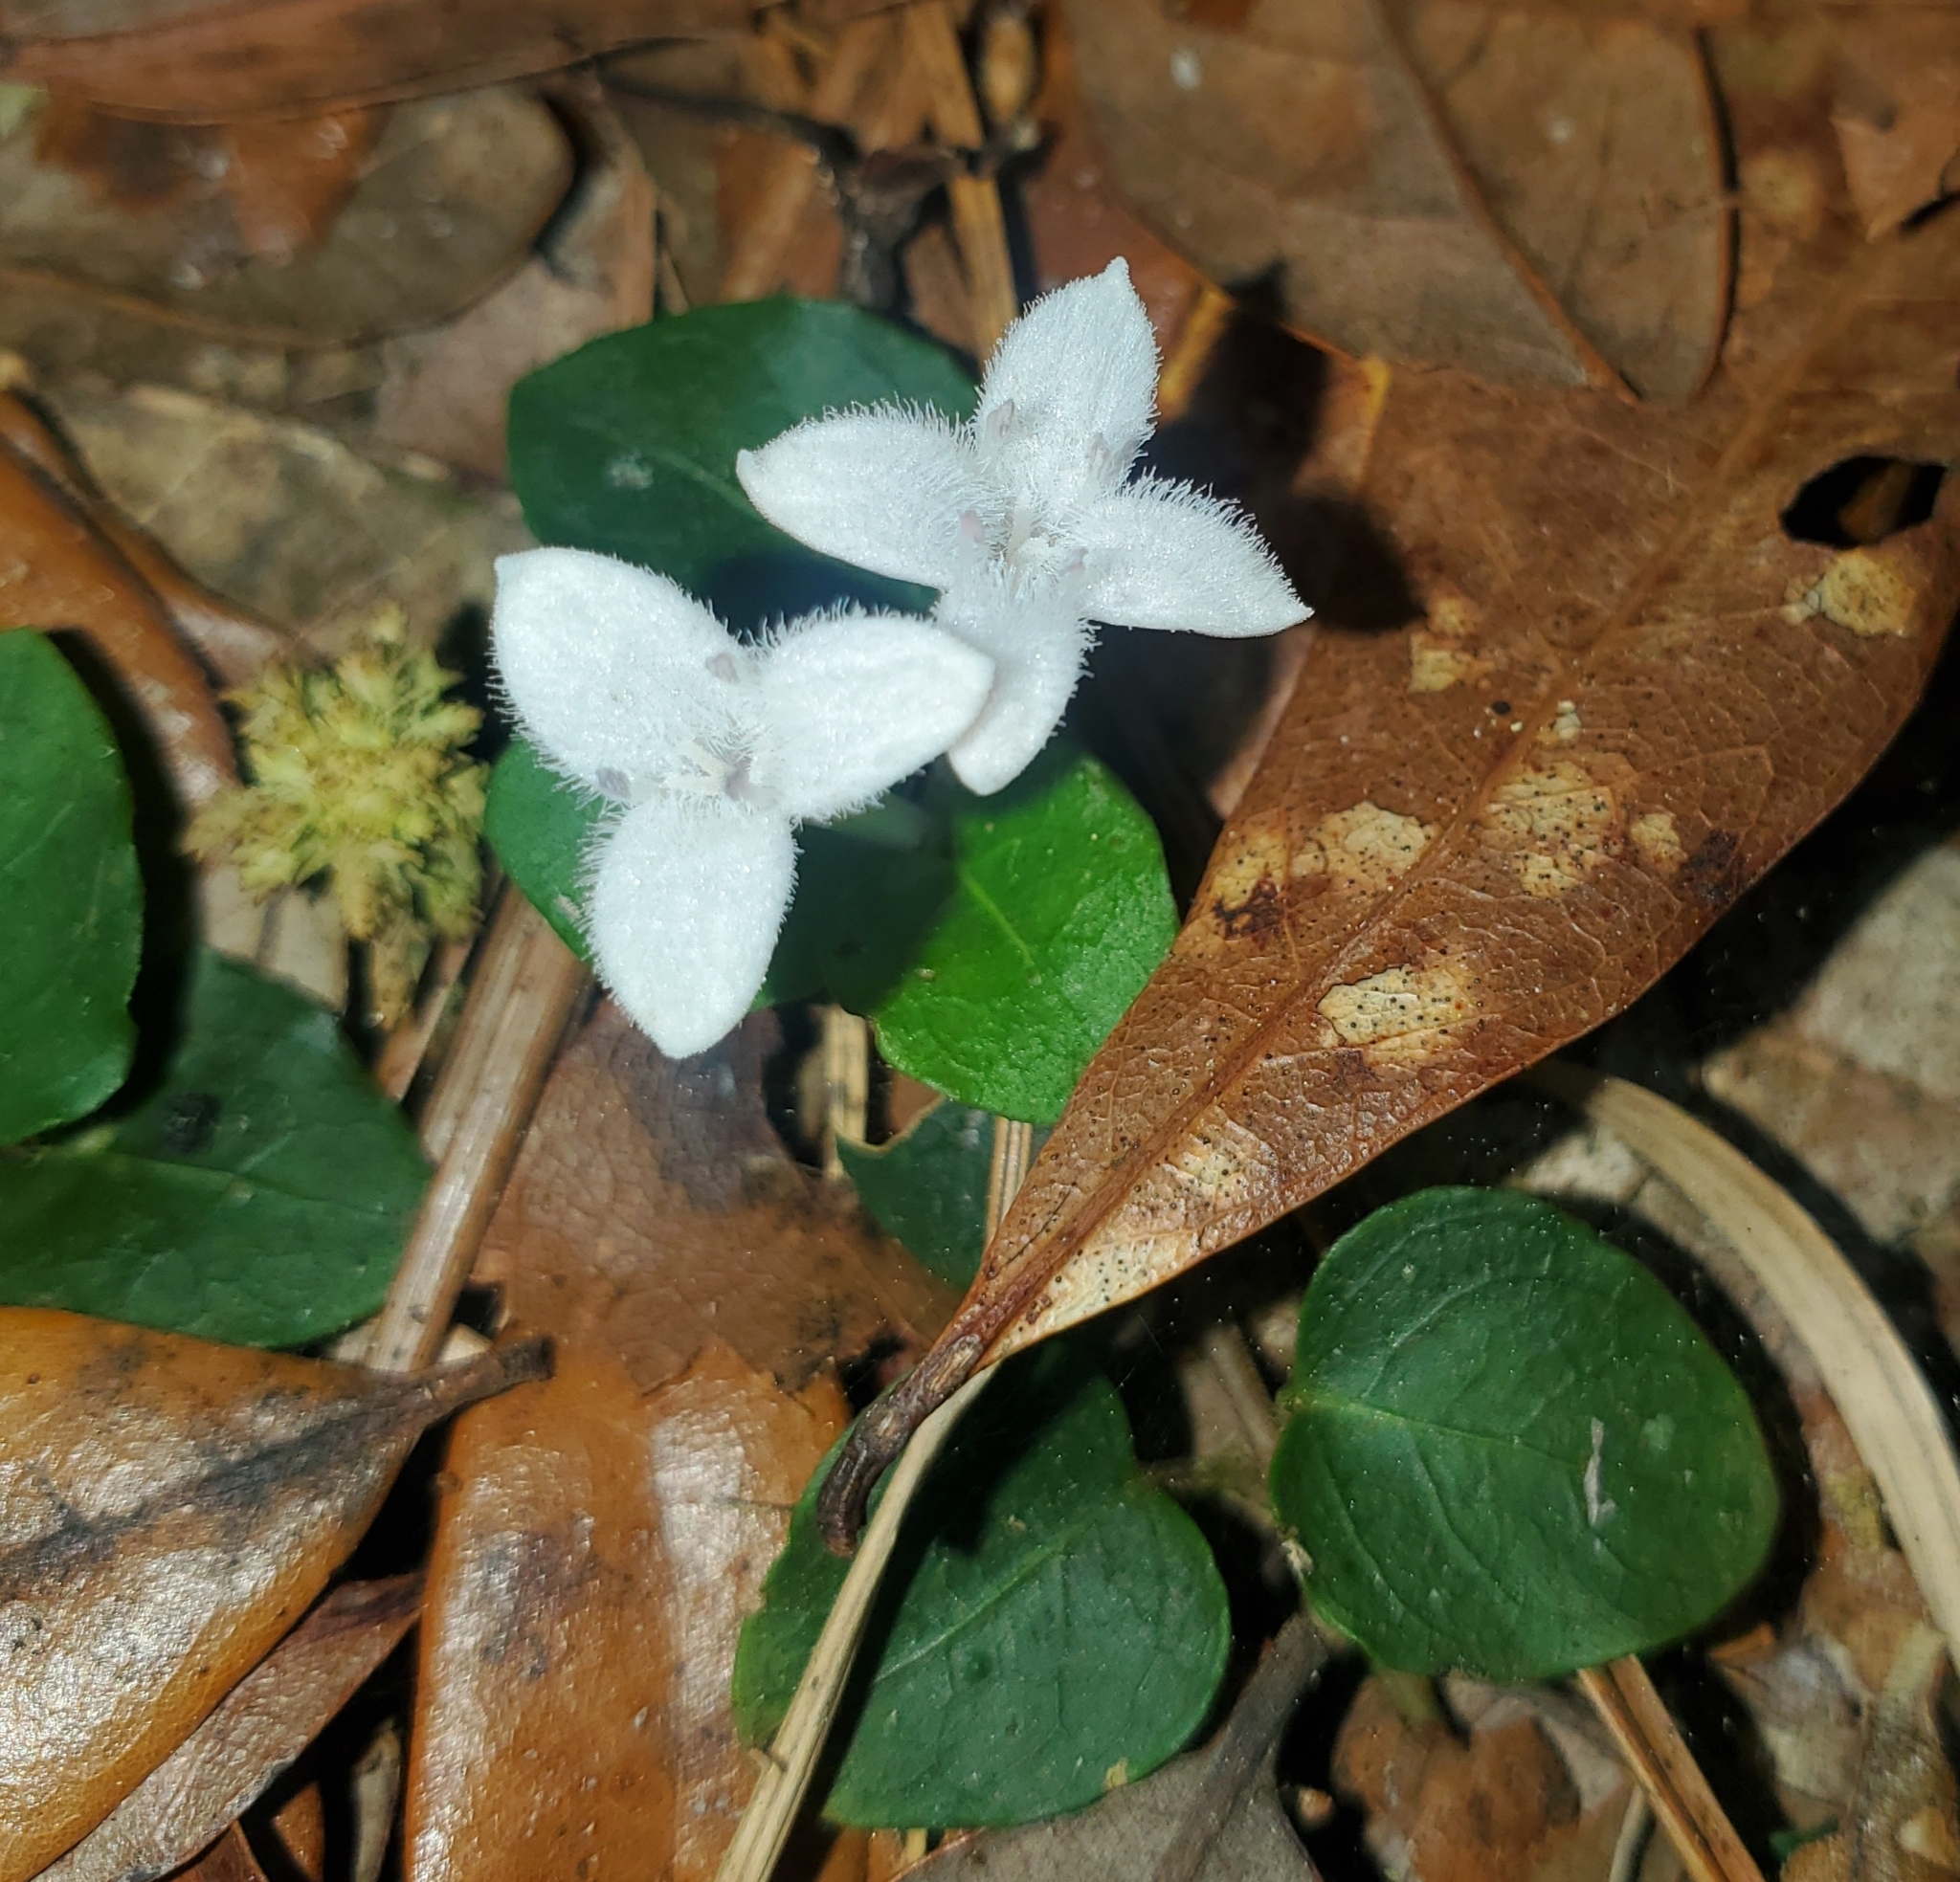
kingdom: Plantae
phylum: Tracheophyta
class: Magnoliopsida
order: Gentianales
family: Rubiaceae
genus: Mitchella
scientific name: Mitchella repens
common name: Partridge-berry
